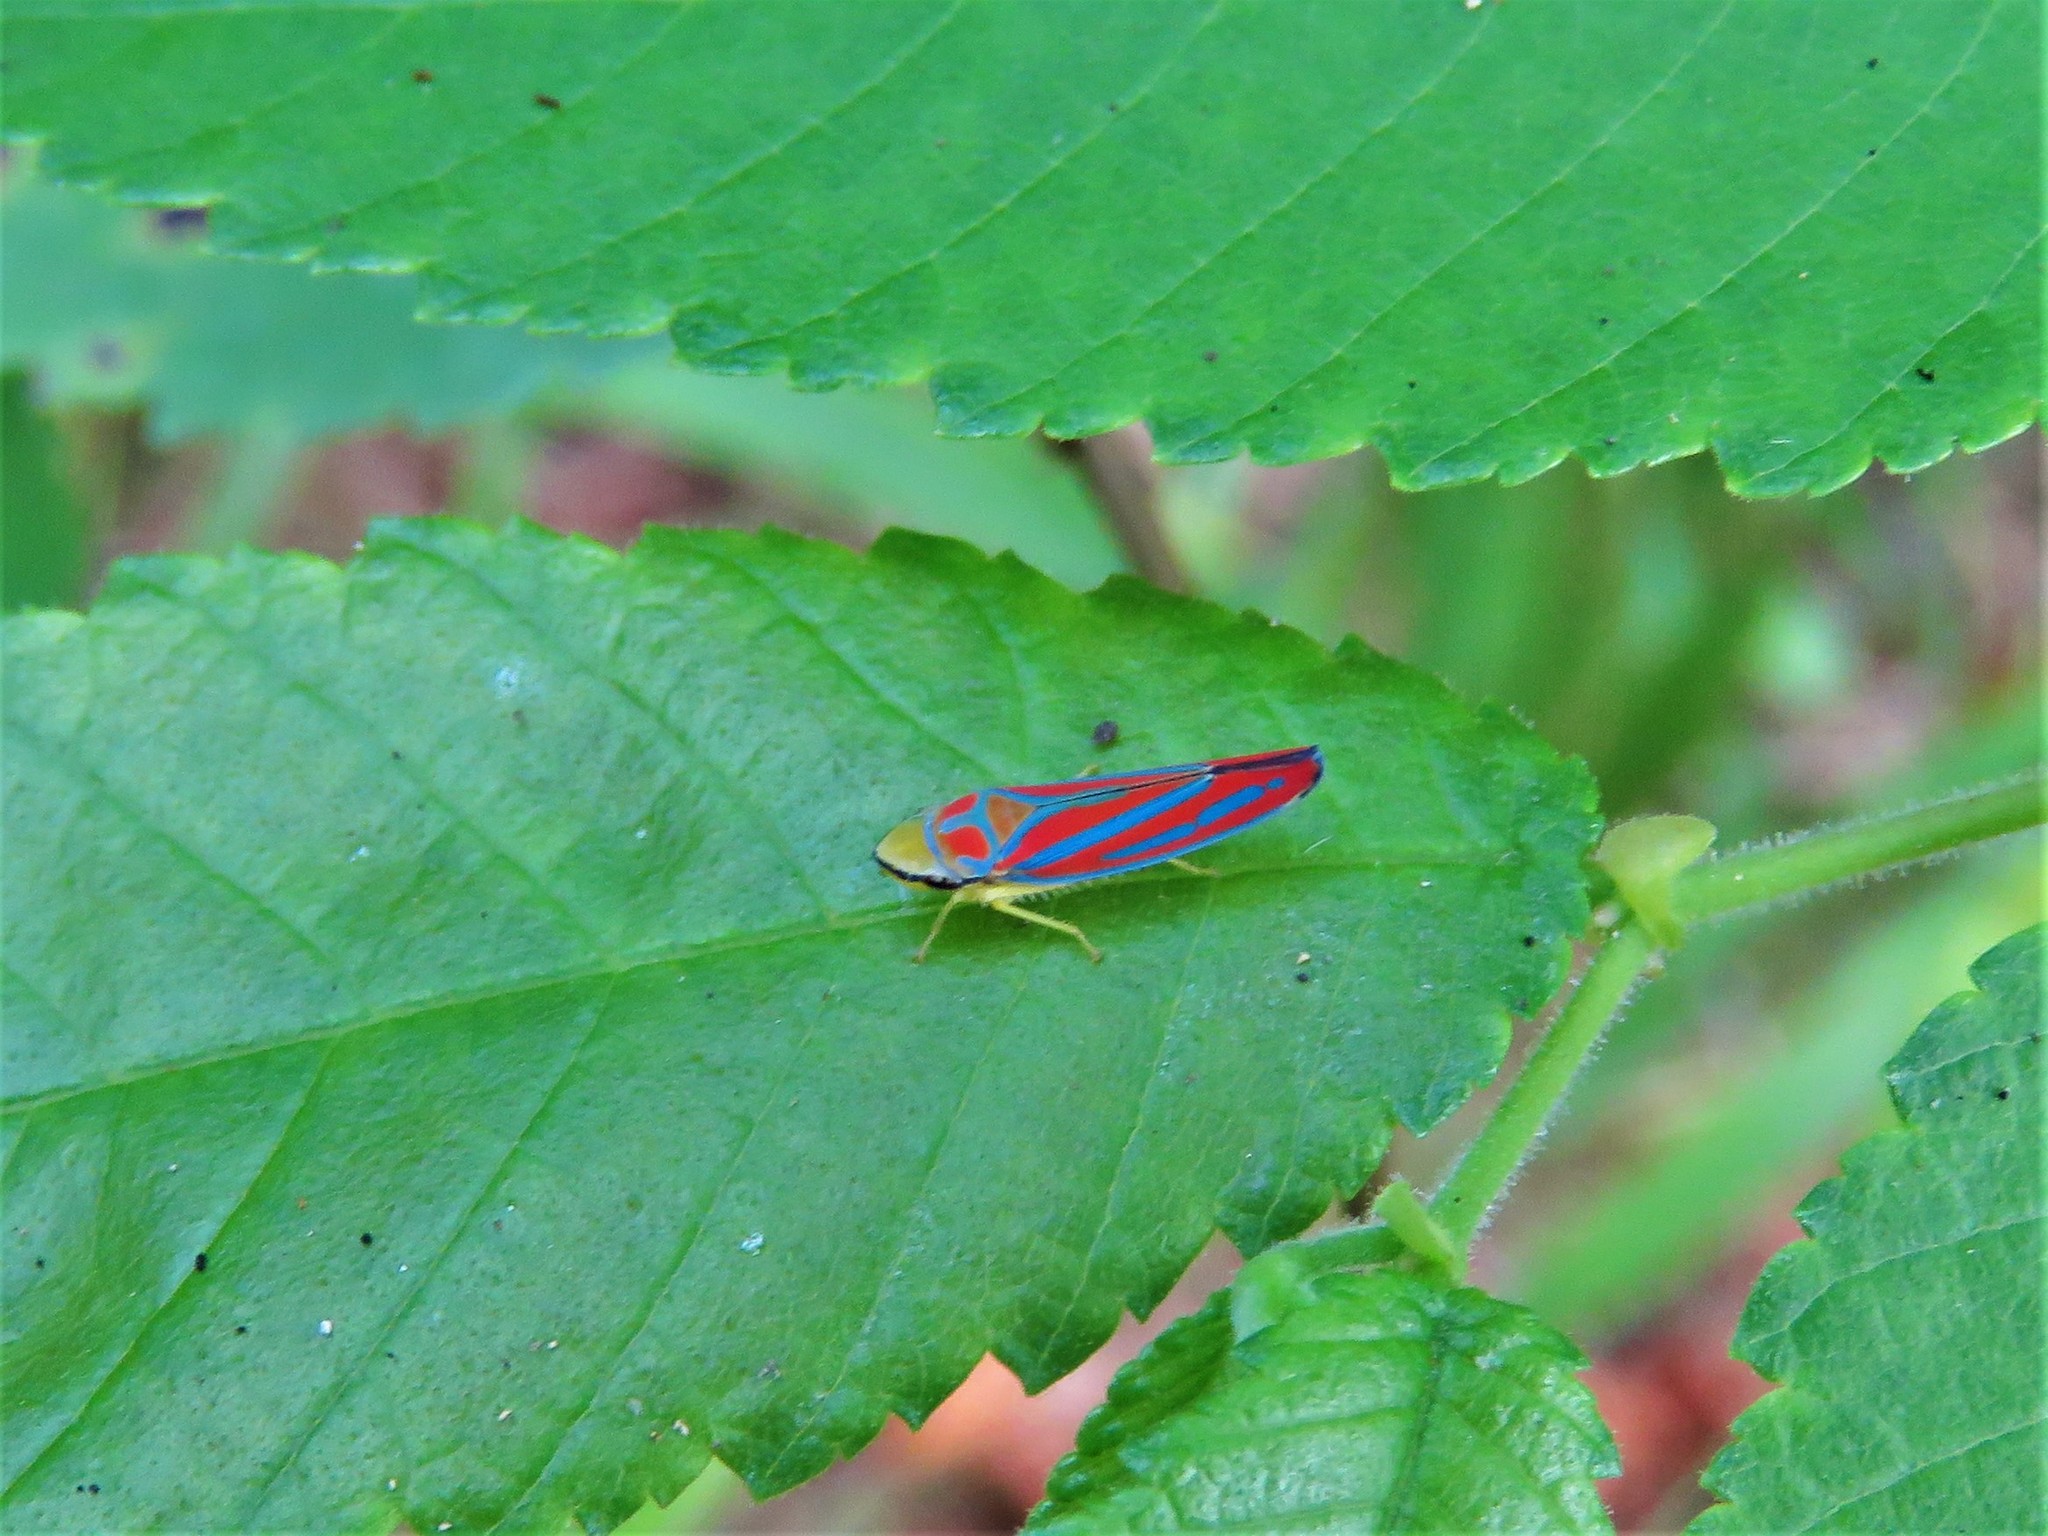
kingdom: Animalia
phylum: Arthropoda
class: Insecta
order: Hemiptera
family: Cicadellidae
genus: Graphocephala
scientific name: Graphocephala coccinea
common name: Candy-striped leafhopper
